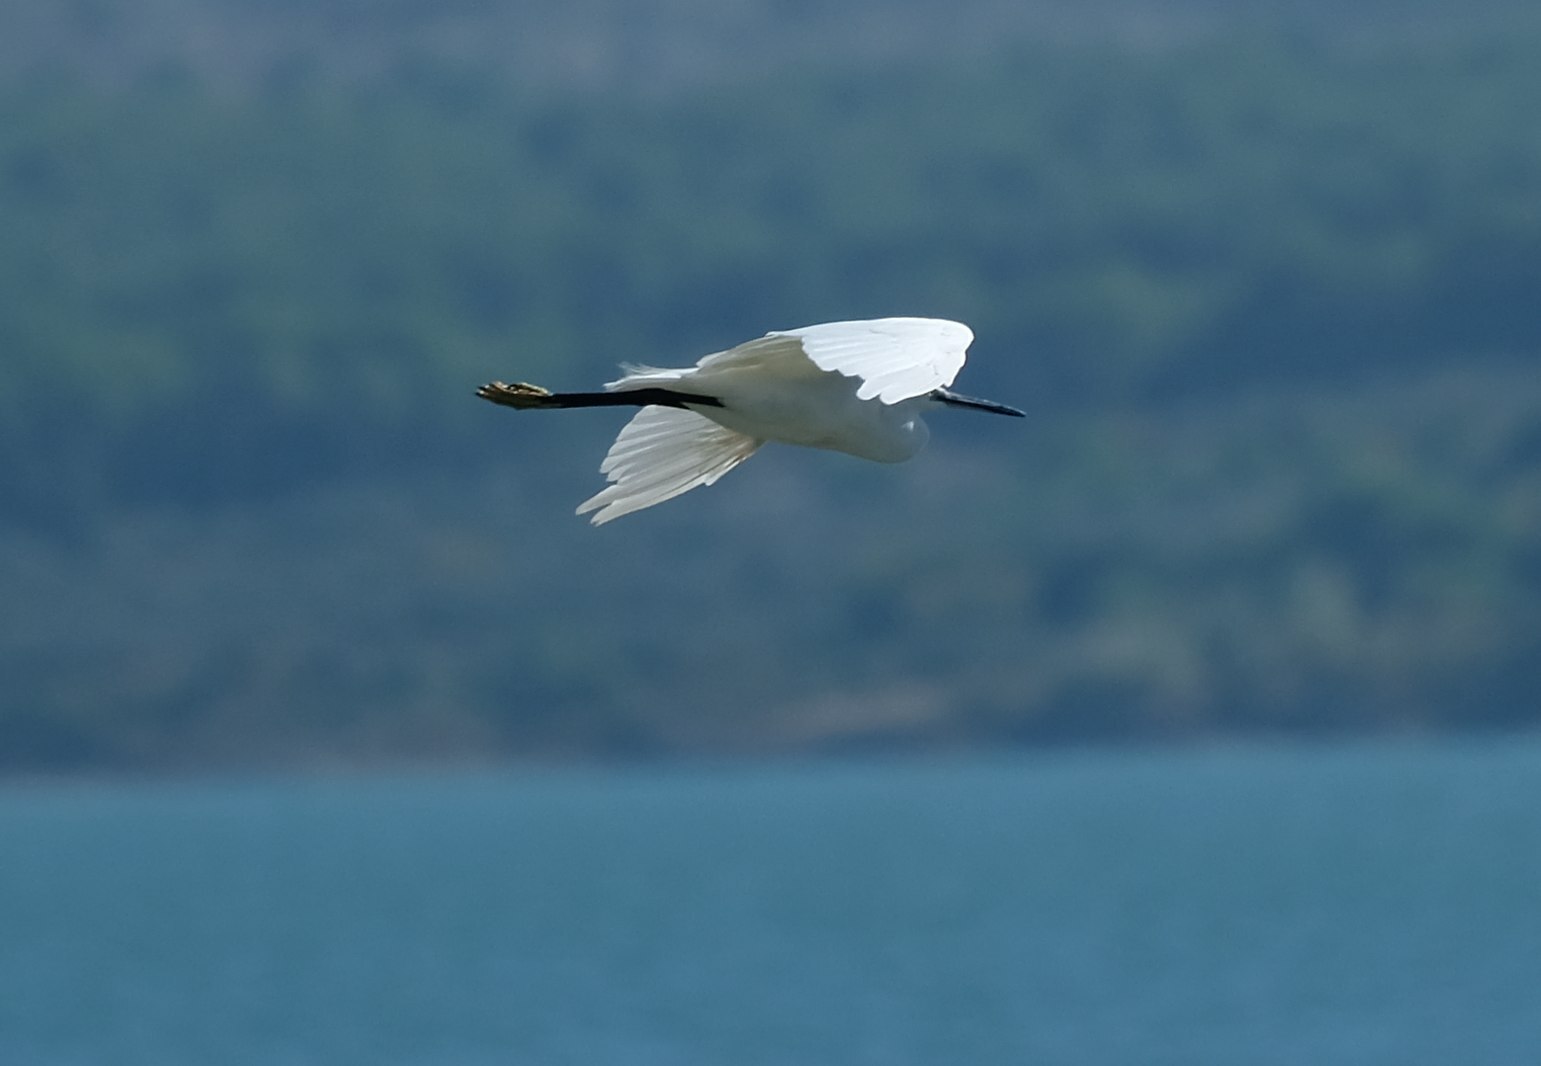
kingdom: Animalia
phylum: Chordata
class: Aves
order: Pelecaniformes
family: Ardeidae
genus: Egretta
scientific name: Egretta garzetta
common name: Little egret
